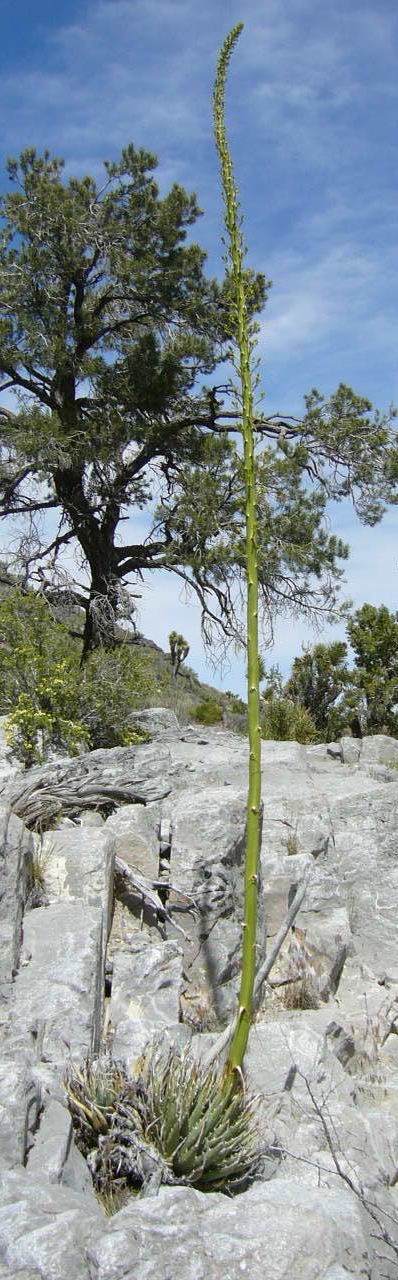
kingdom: Plantae
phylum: Tracheophyta
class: Liliopsida
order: Asparagales
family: Asparagaceae
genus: Agave
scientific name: Agave utahensis
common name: Utah agave
